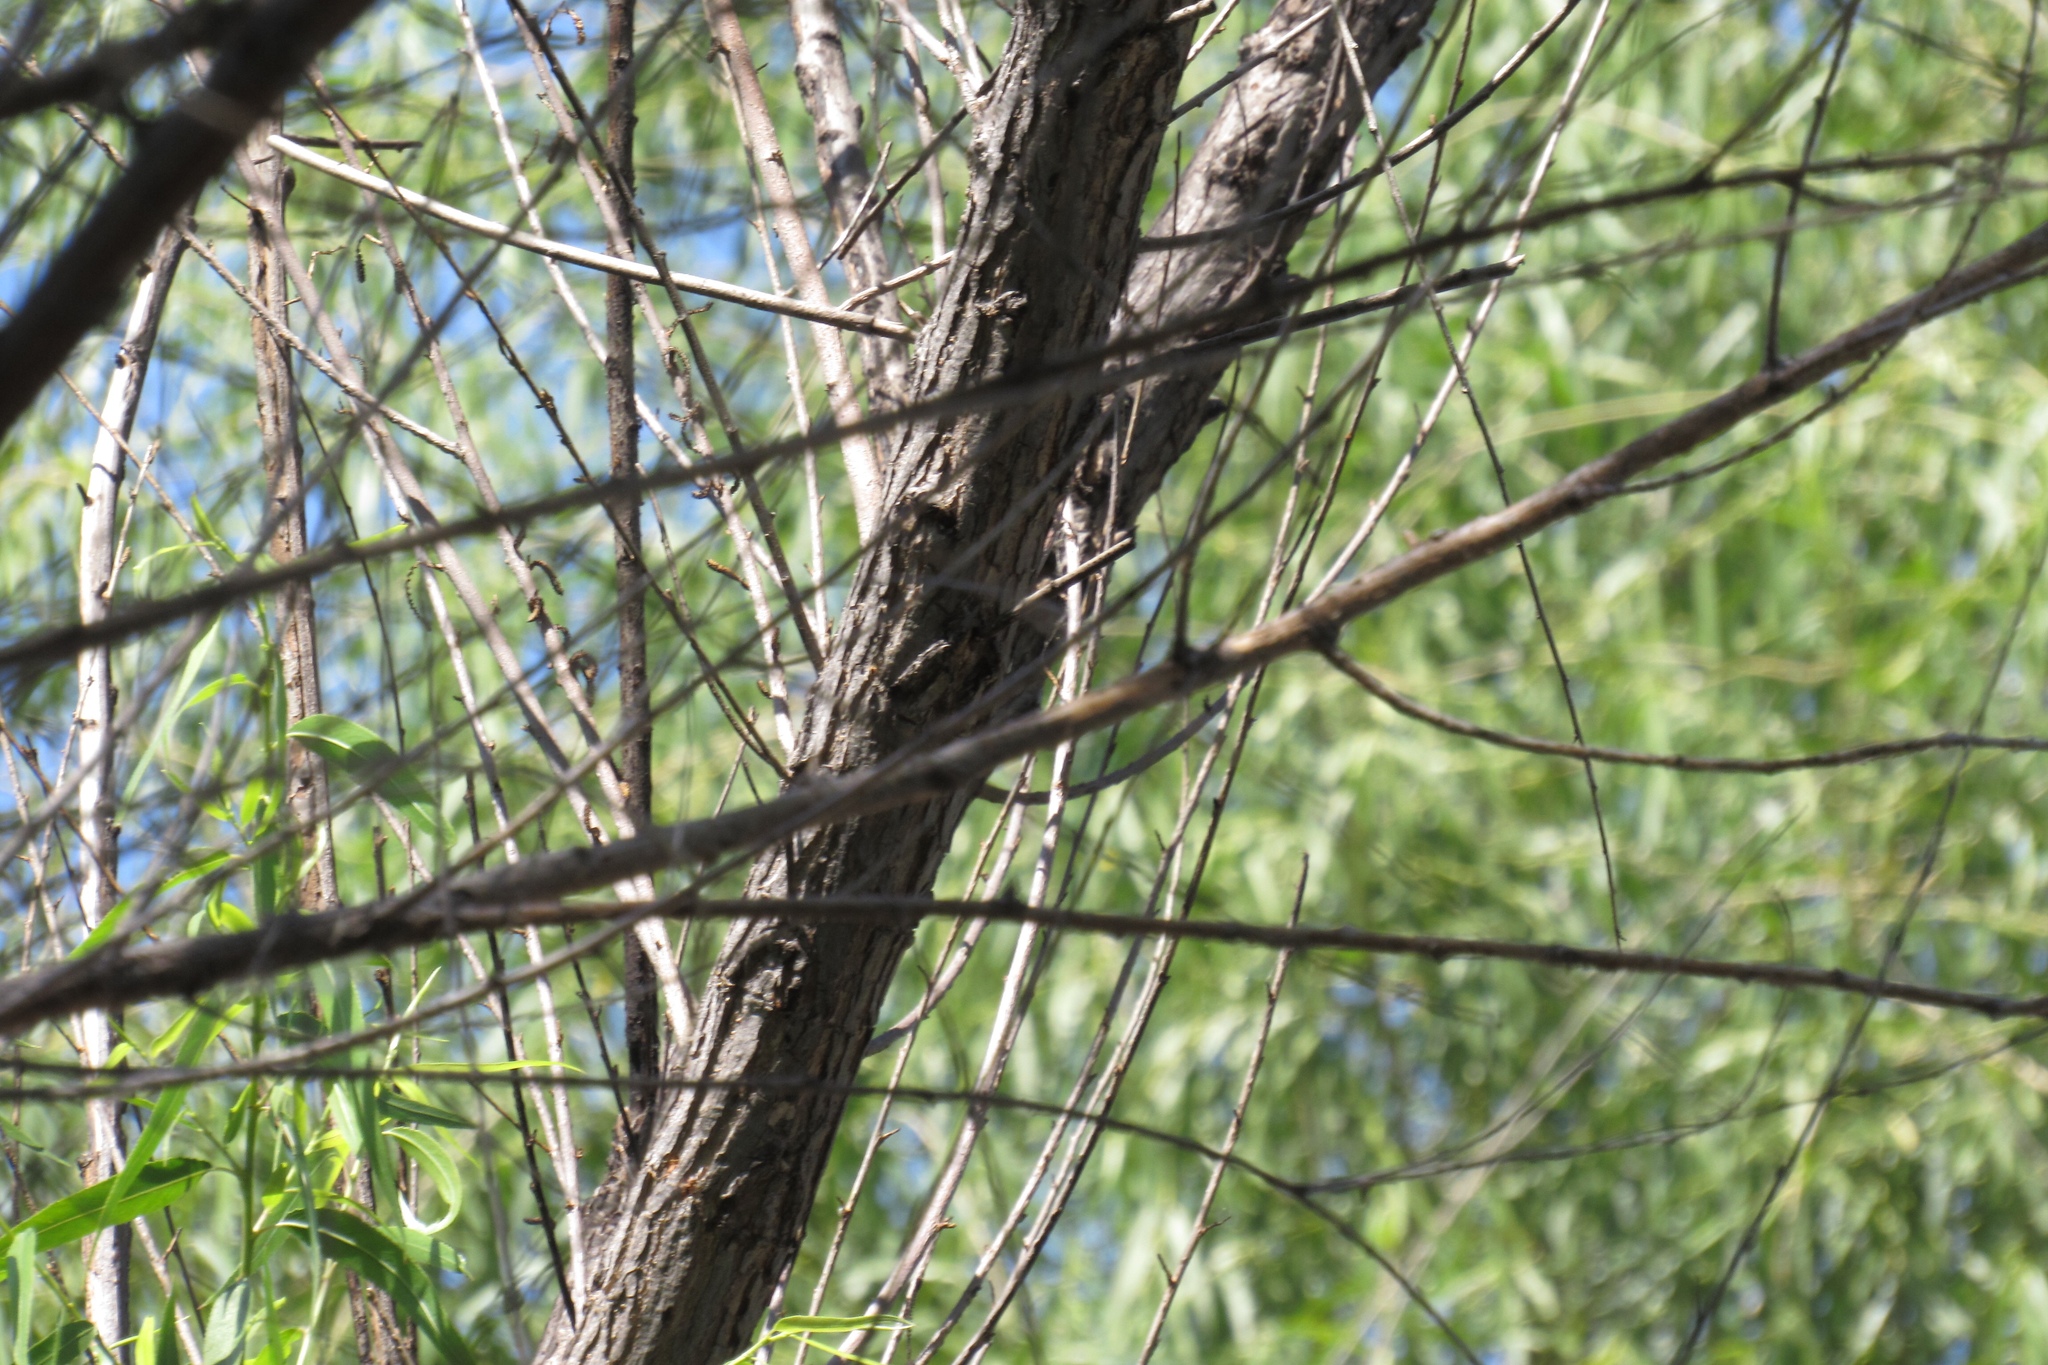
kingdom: Animalia
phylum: Chordata
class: Aves
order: Columbiformes
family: Columbidae
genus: Zenaida
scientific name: Zenaida asiatica
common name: White-winged dove
